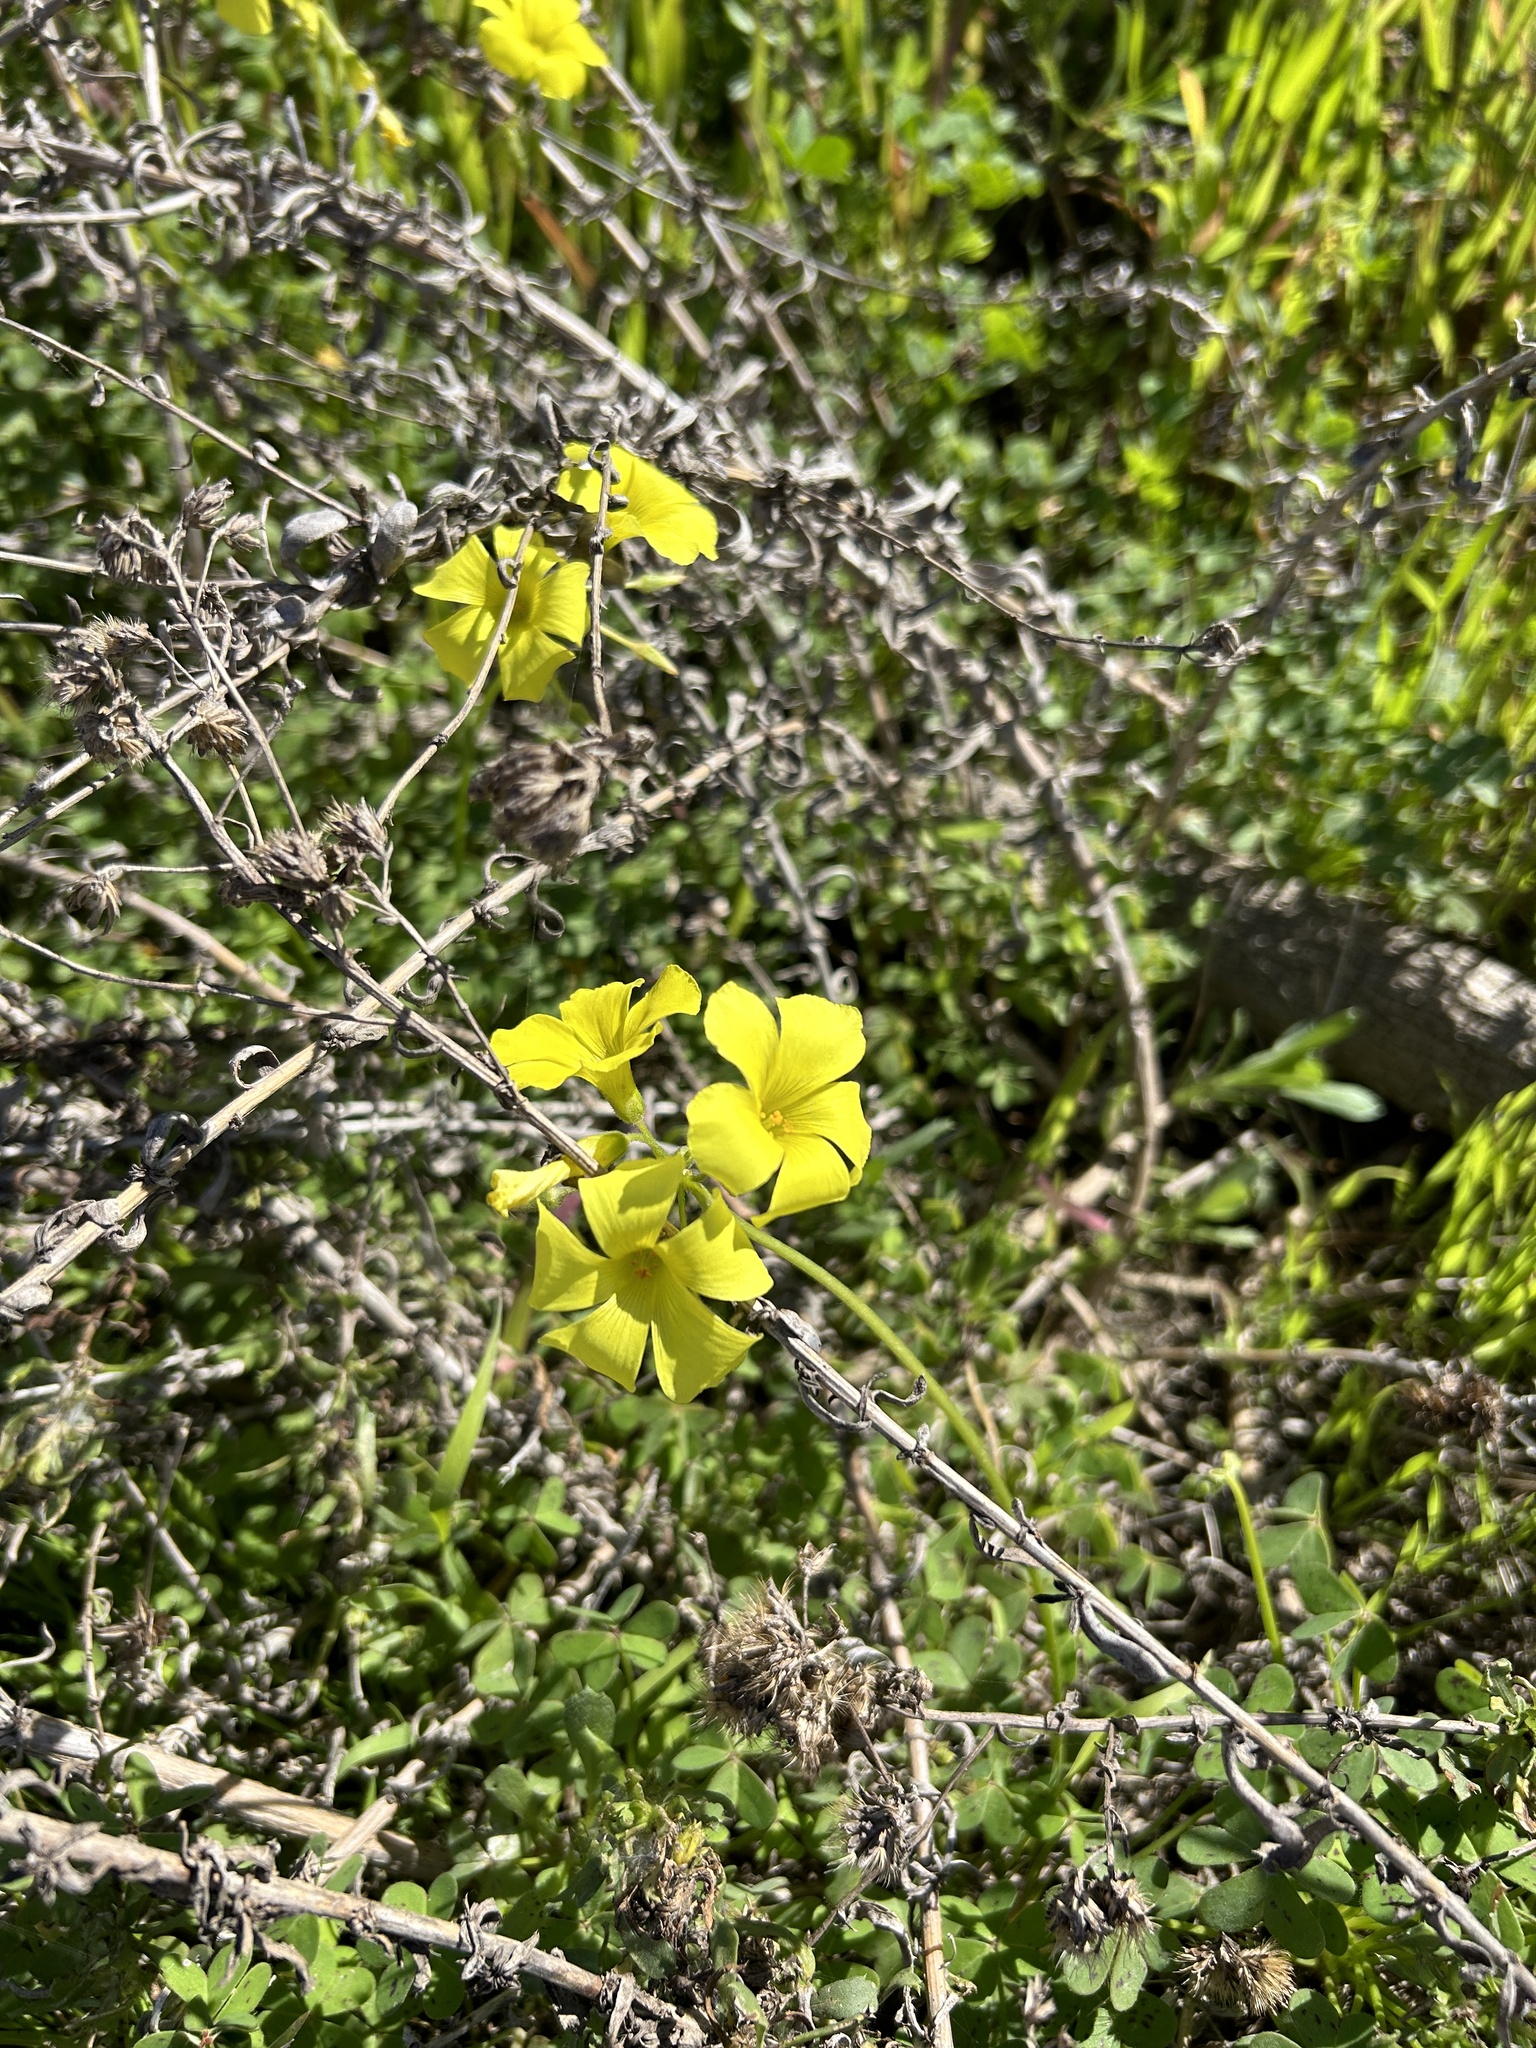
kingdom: Plantae
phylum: Tracheophyta
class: Magnoliopsida
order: Oxalidales
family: Oxalidaceae
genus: Oxalis
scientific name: Oxalis pes-caprae
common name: Bermuda-buttercup
